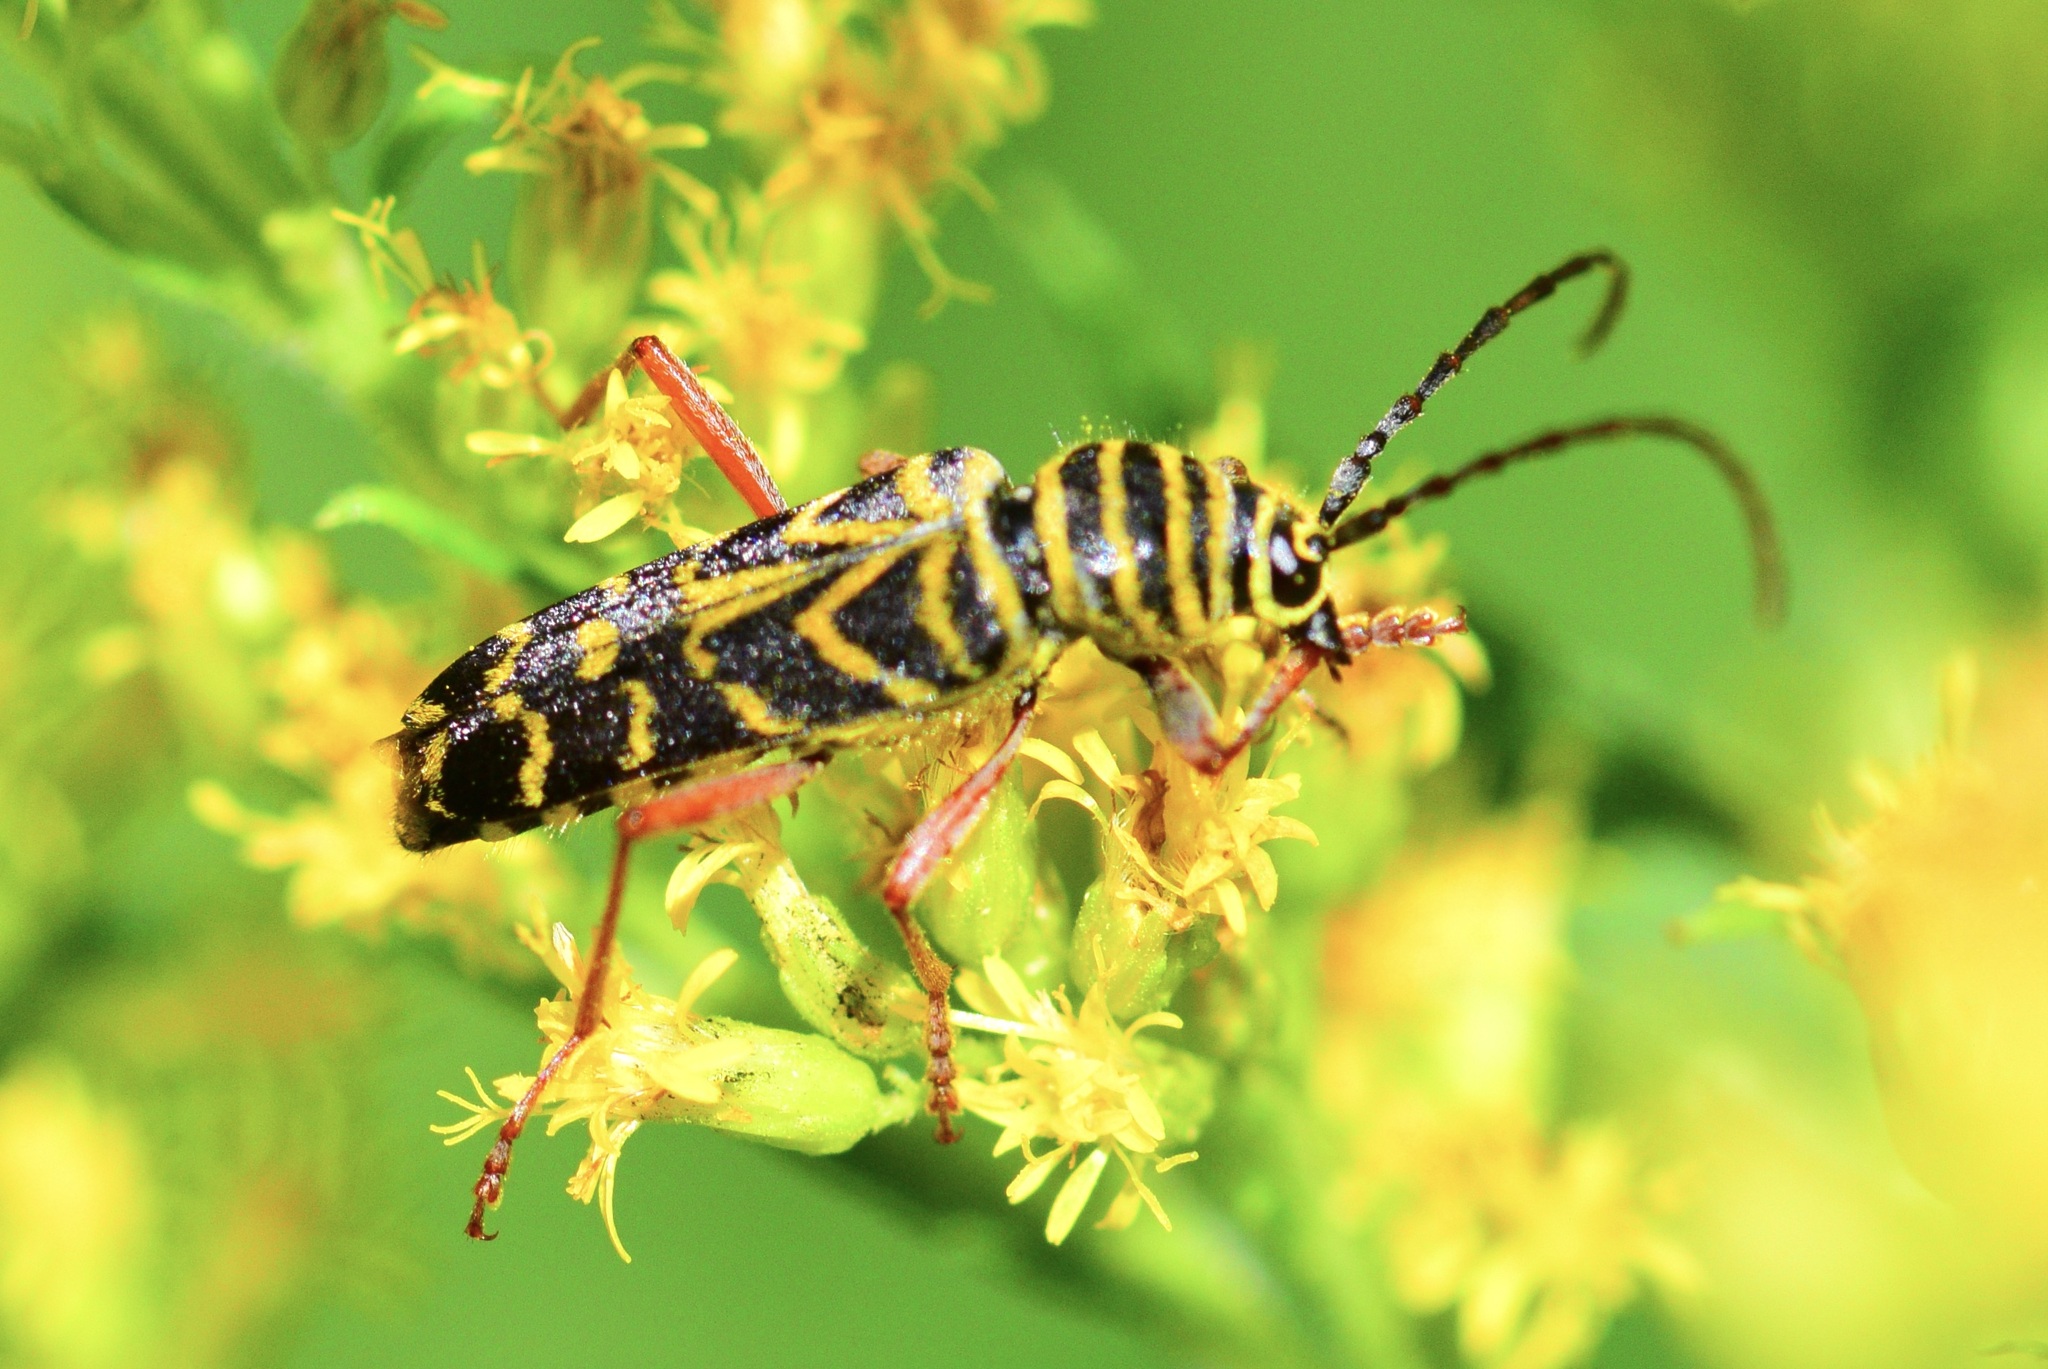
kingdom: Animalia
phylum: Arthropoda
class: Insecta
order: Coleoptera
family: Cerambycidae
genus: Megacyllene
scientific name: Megacyllene robiniae
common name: Locust borer
